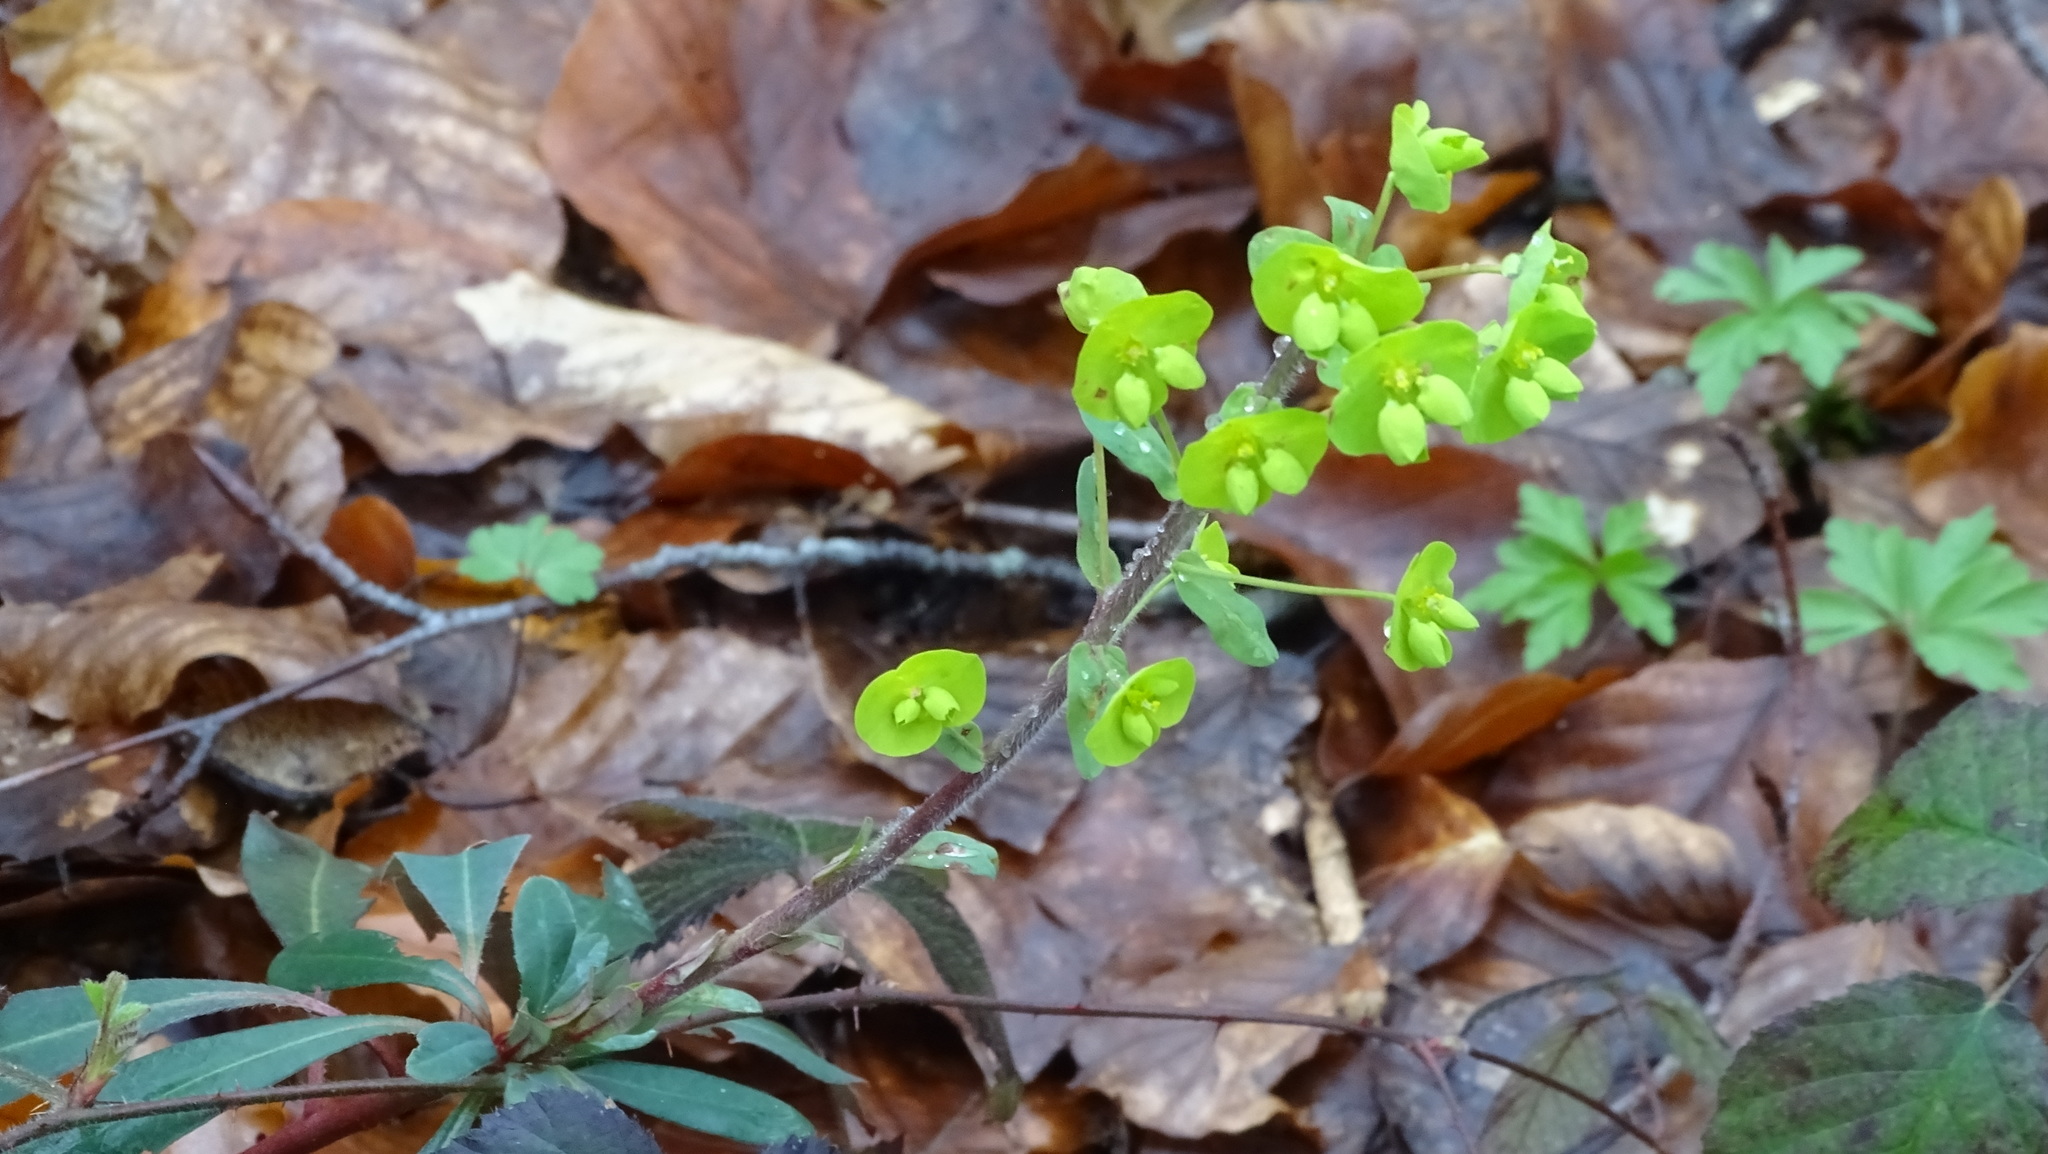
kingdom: Plantae
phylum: Tracheophyta
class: Magnoliopsida
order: Malpighiales
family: Euphorbiaceae
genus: Euphorbia
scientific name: Euphorbia amygdaloides
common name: Wood spurge
